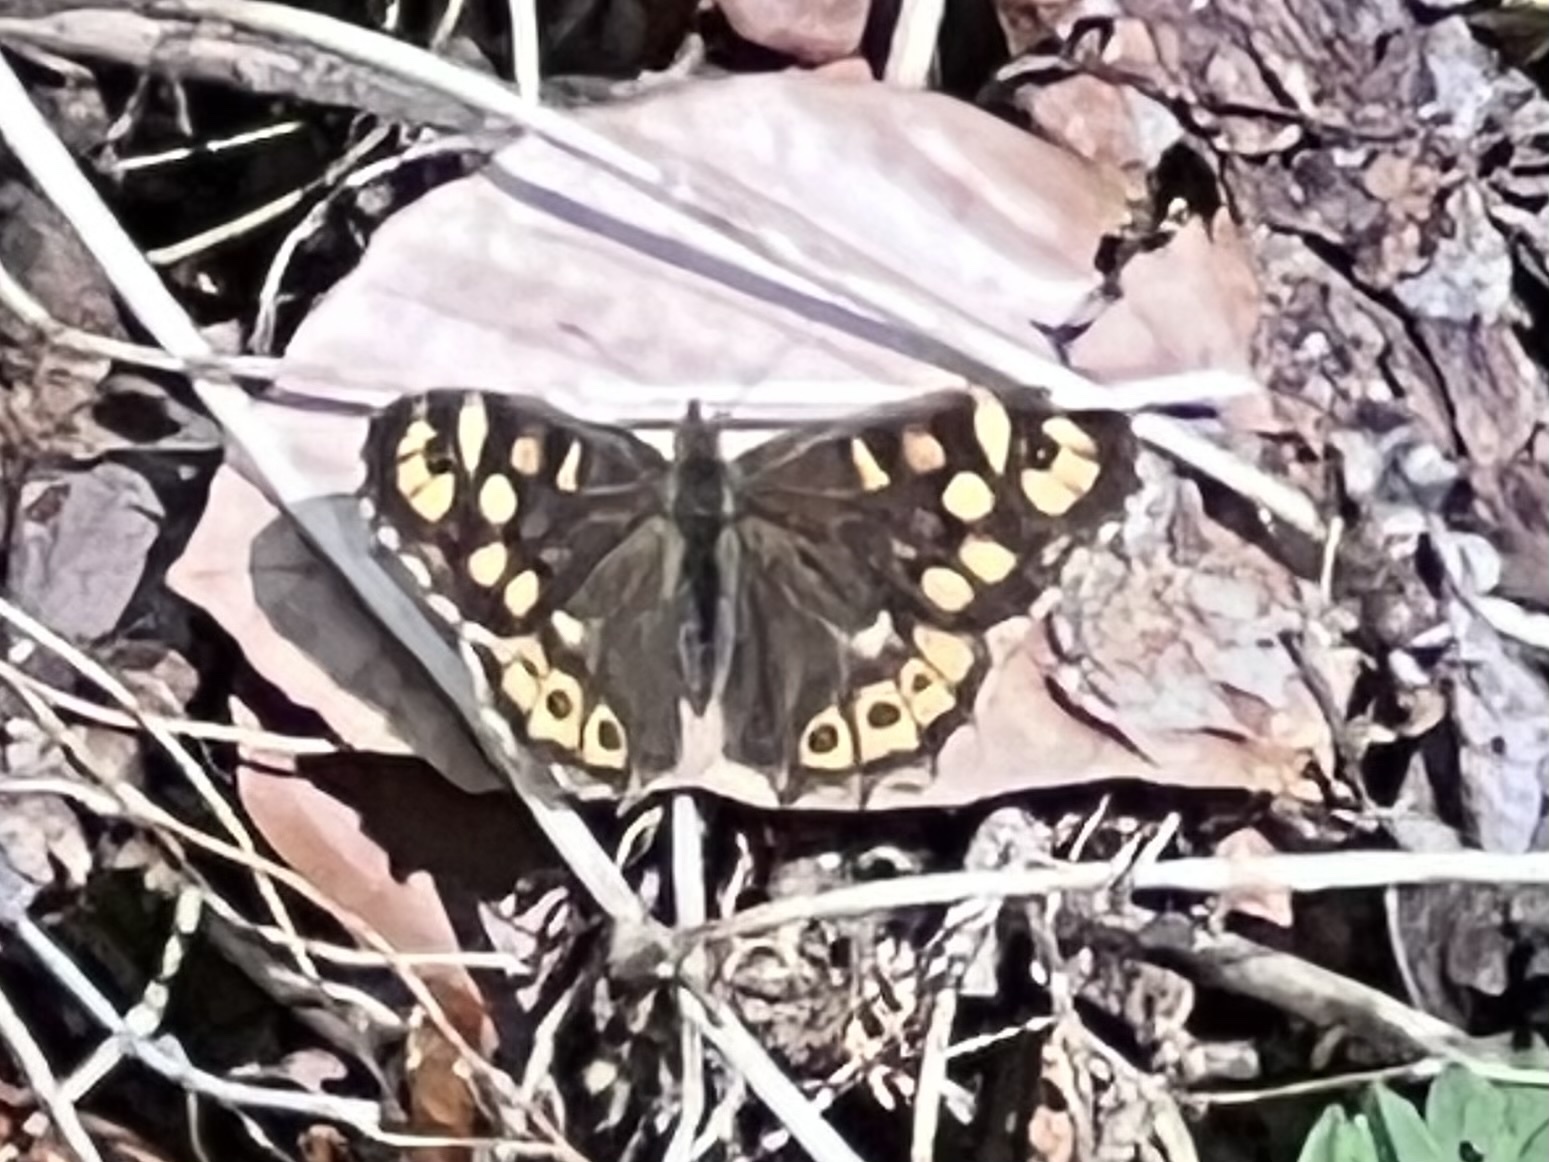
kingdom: Animalia
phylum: Arthropoda
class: Insecta
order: Lepidoptera
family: Nymphalidae
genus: Pararge
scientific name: Pararge aegeria
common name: Speckled wood
